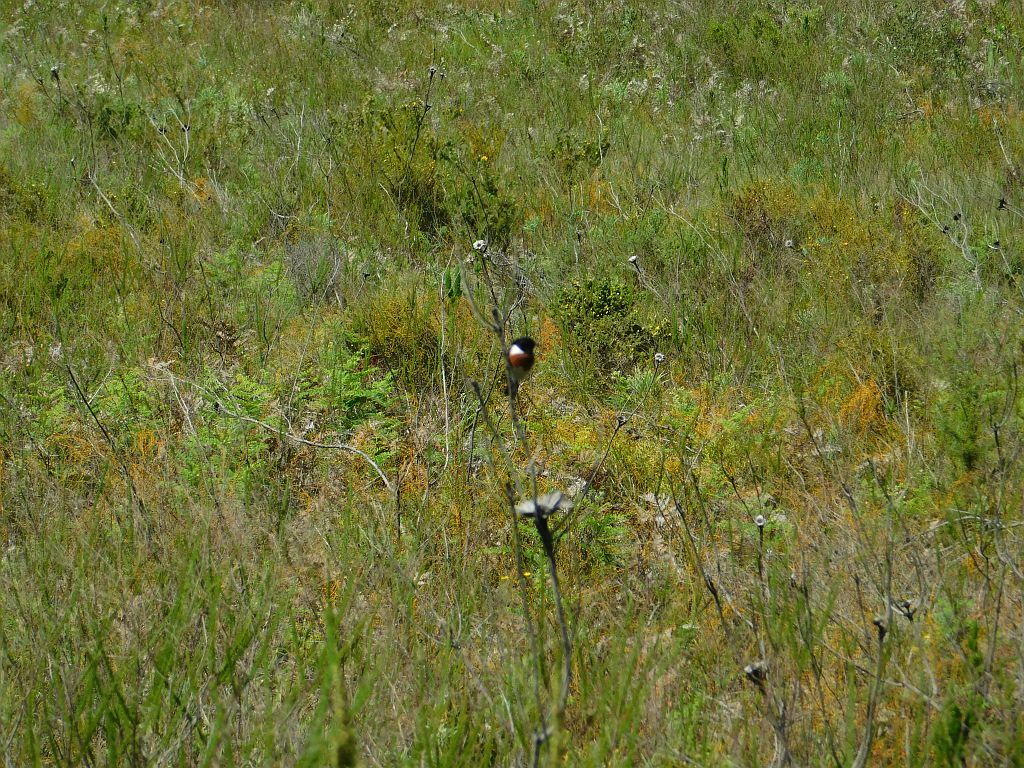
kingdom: Animalia
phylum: Chordata
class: Aves
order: Passeriformes
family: Muscicapidae
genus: Saxicola
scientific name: Saxicola torquatus
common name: African stonechat
